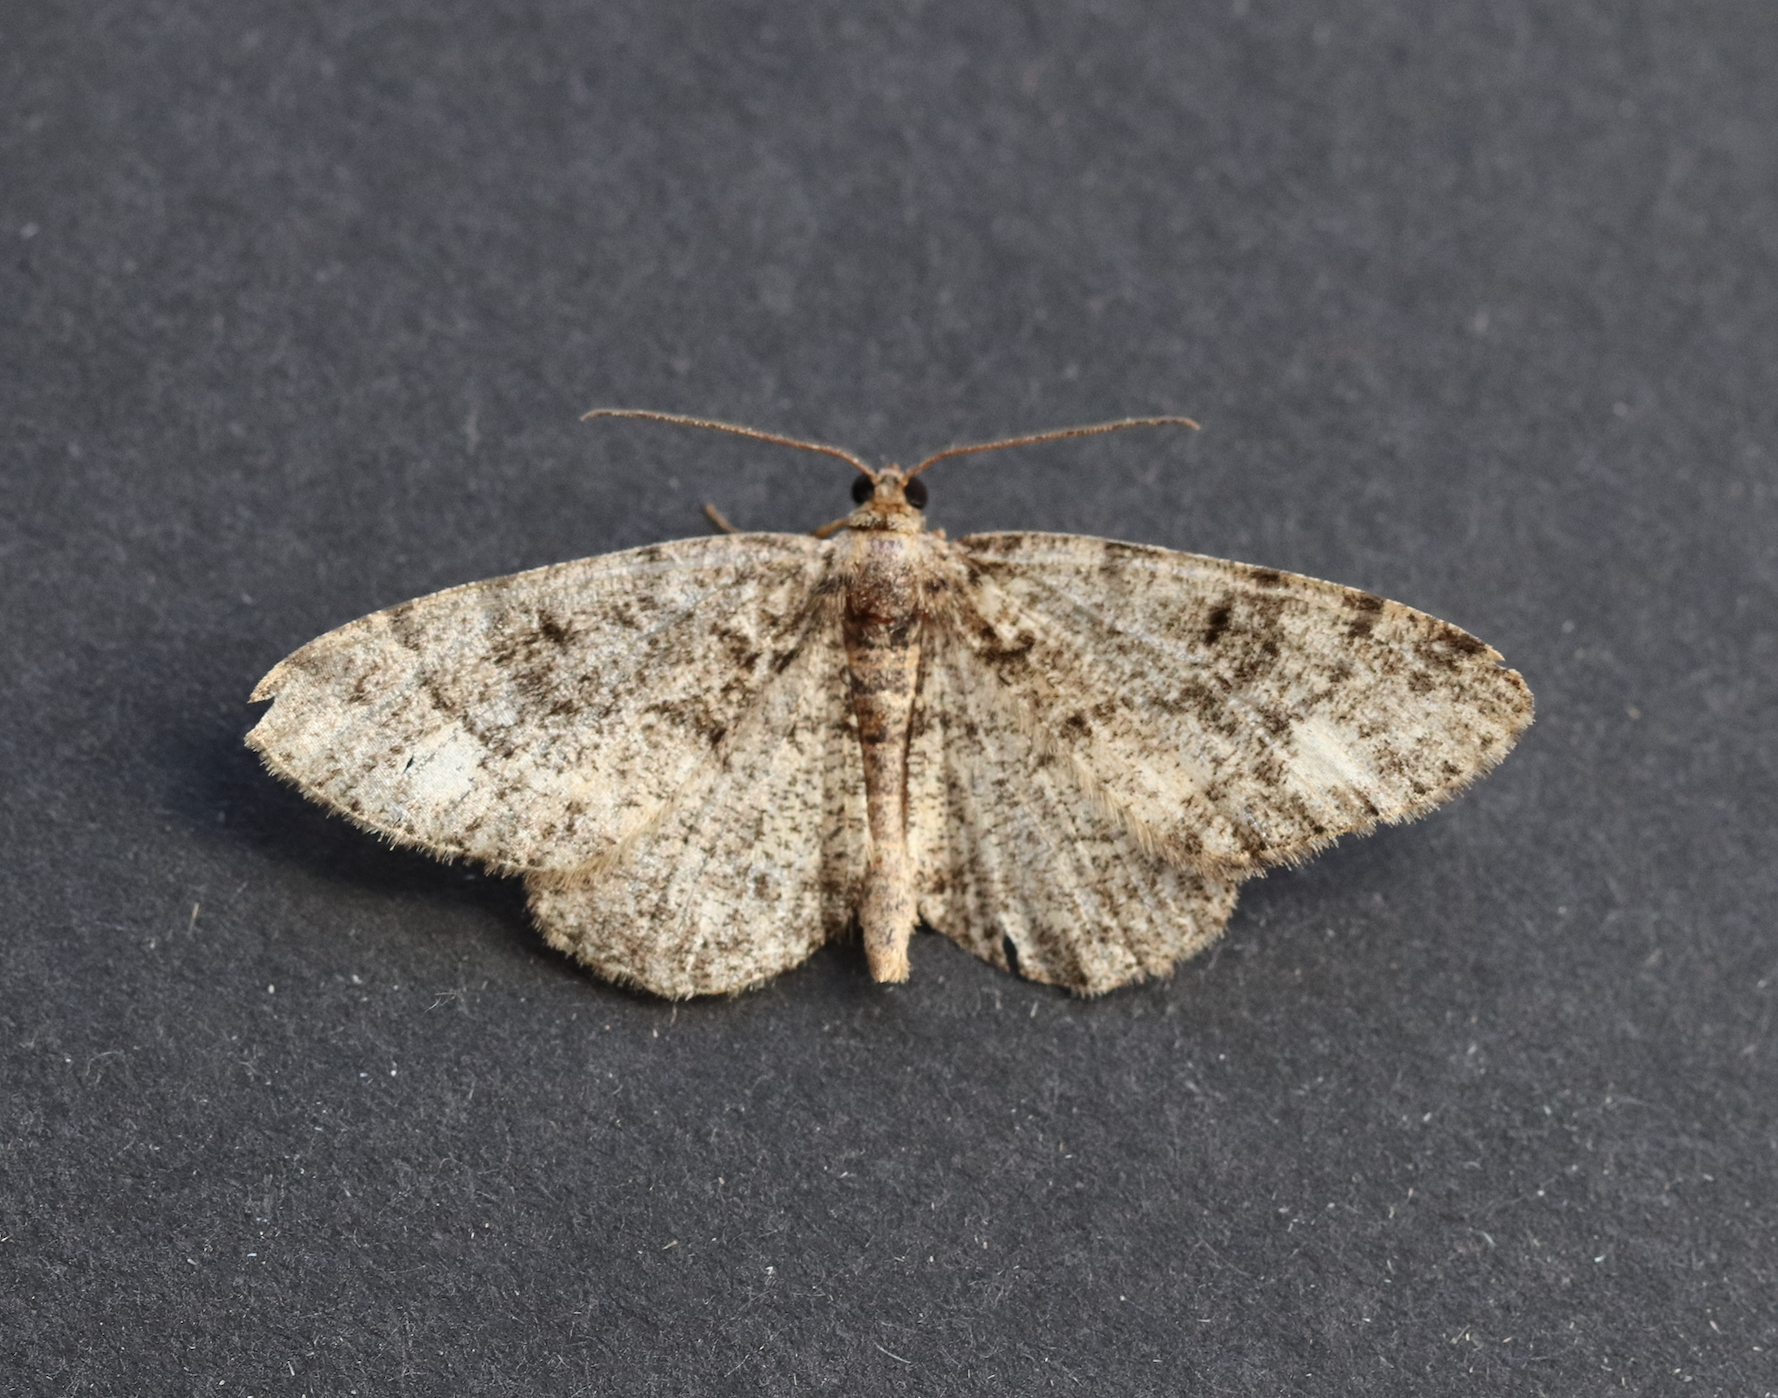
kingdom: Animalia
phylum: Arthropoda
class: Insecta
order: Lepidoptera
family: Geometridae
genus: Parectropis
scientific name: Parectropis similaria
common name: Brindled white-spot
